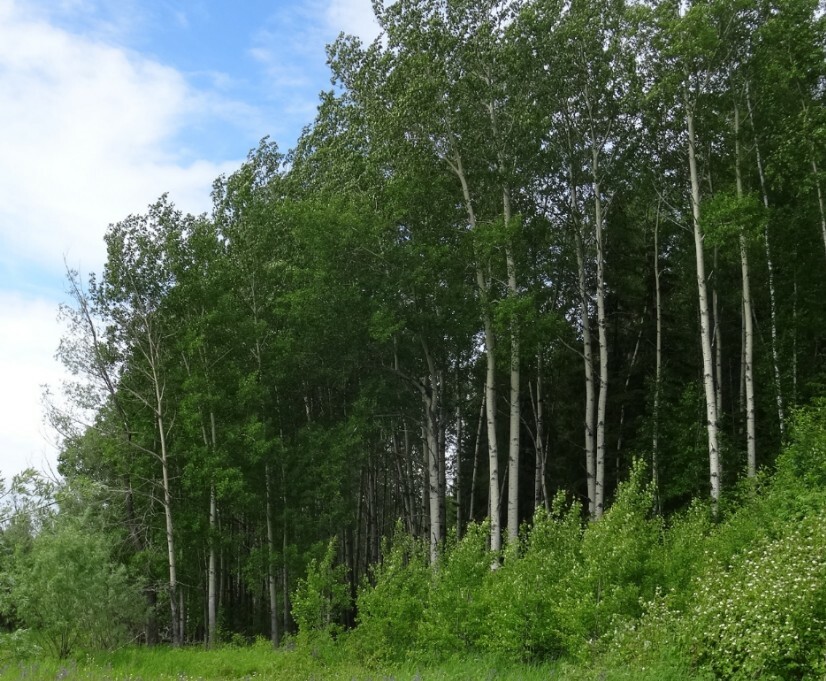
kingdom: Plantae
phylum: Tracheophyta
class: Magnoliopsida
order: Malpighiales
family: Salicaceae
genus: Populus
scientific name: Populus tremula
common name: European aspen
